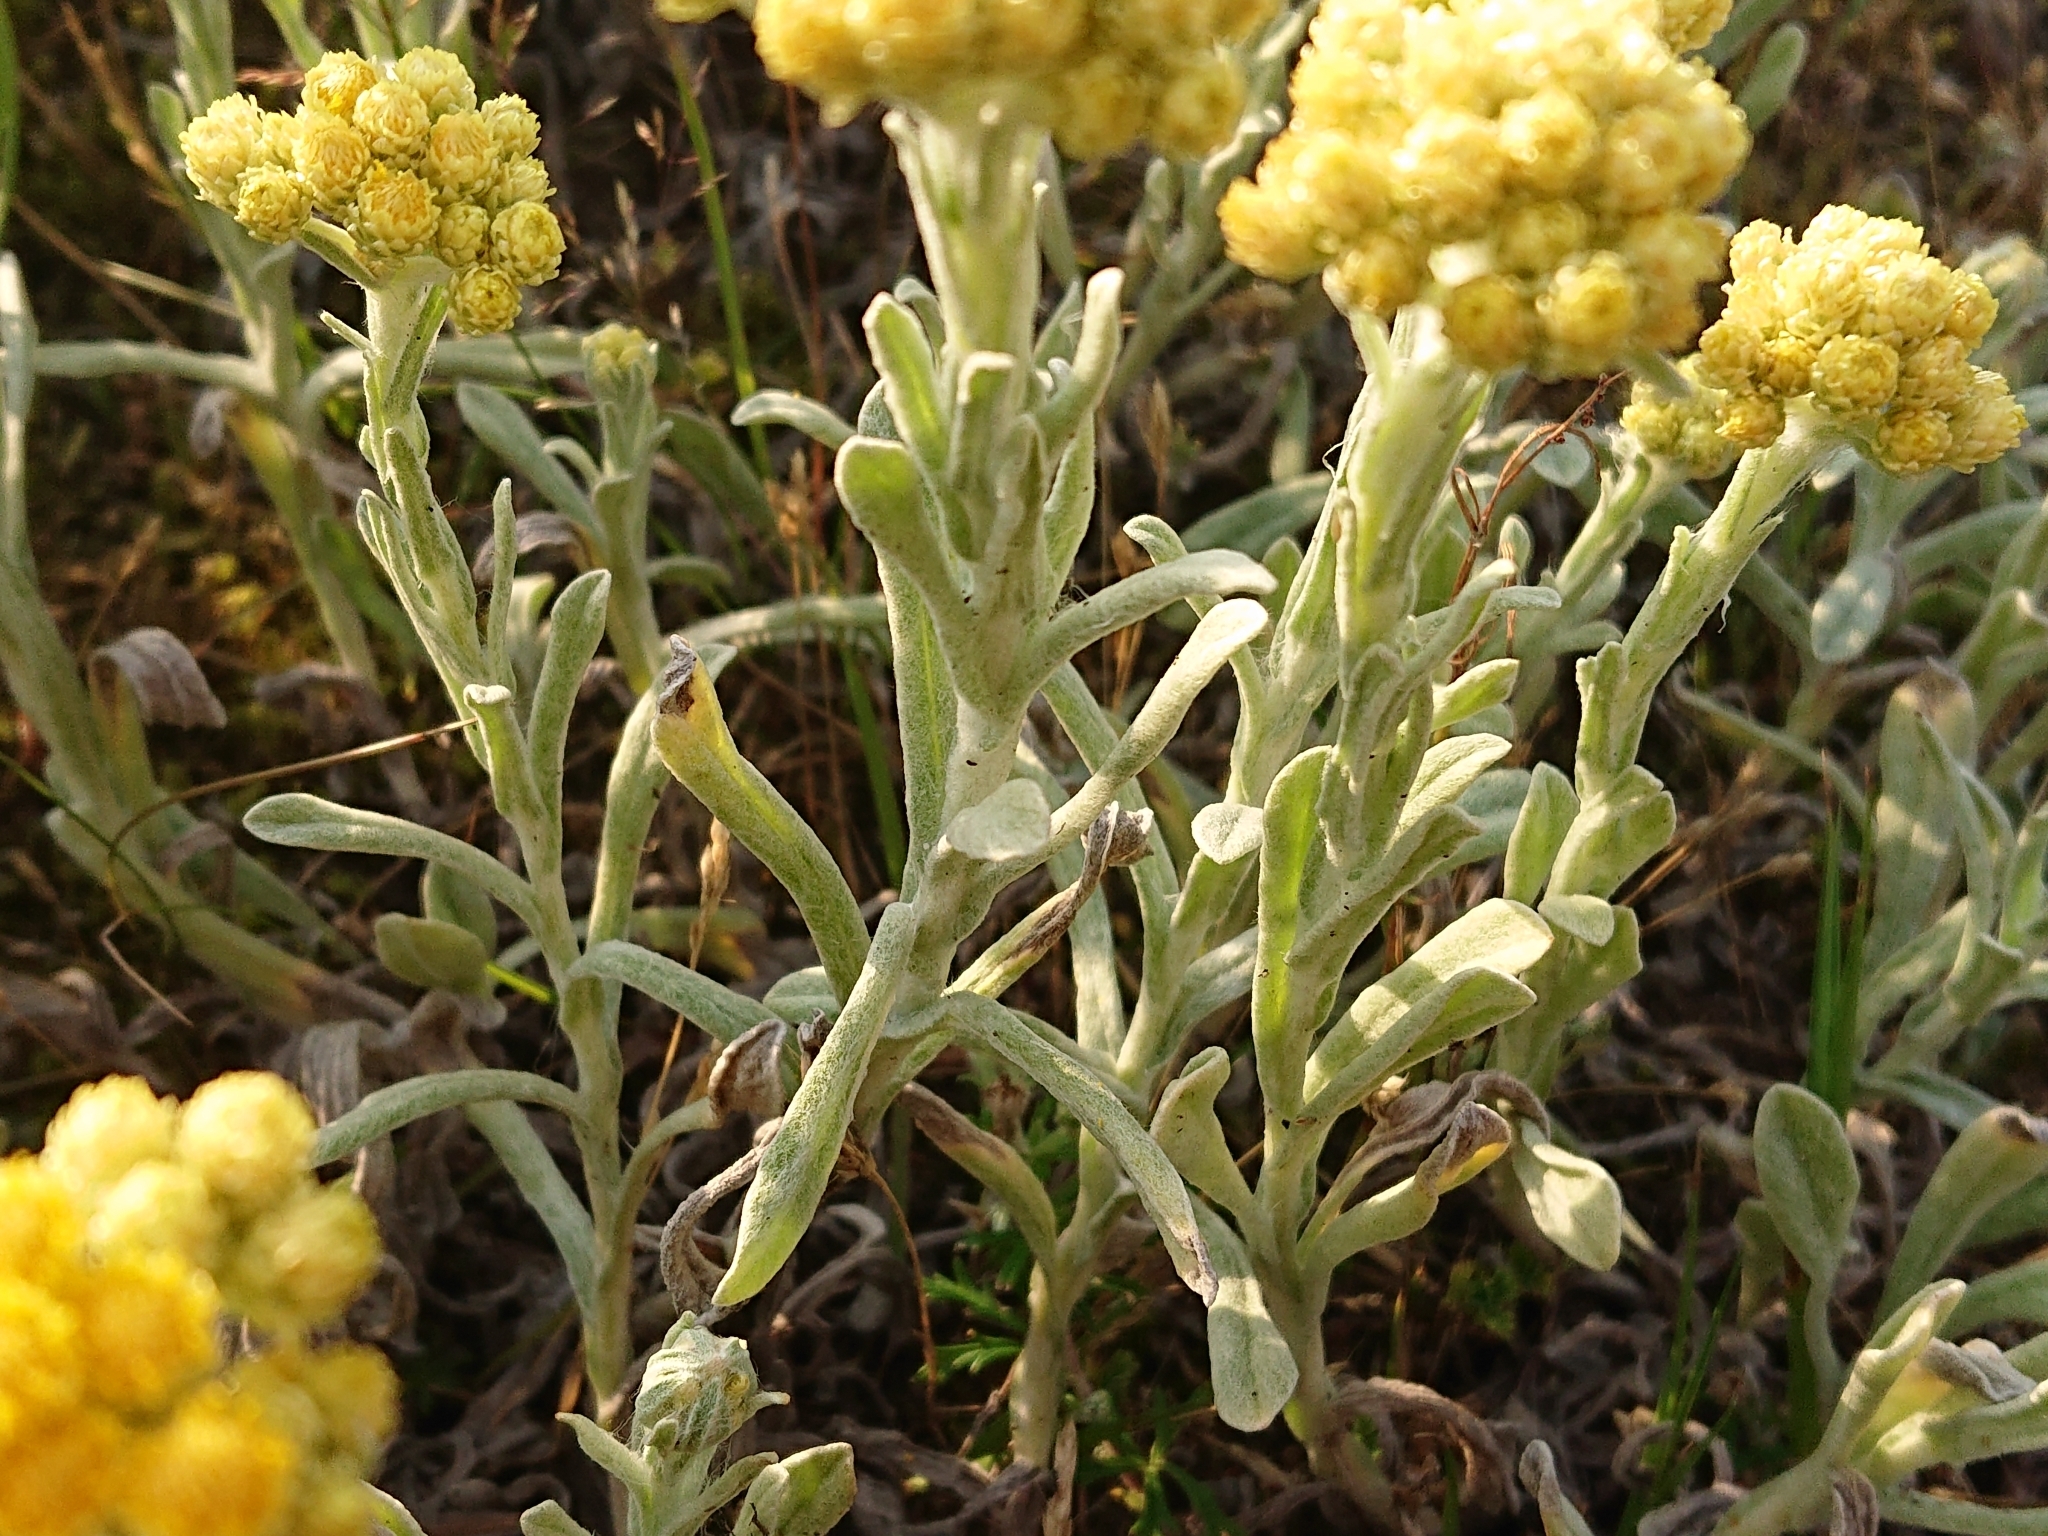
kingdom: Plantae
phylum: Tracheophyta
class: Magnoliopsida
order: Asterales
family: Asteraceae
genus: Helichrysum
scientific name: Helichrysum arenarium
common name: Strawflower
